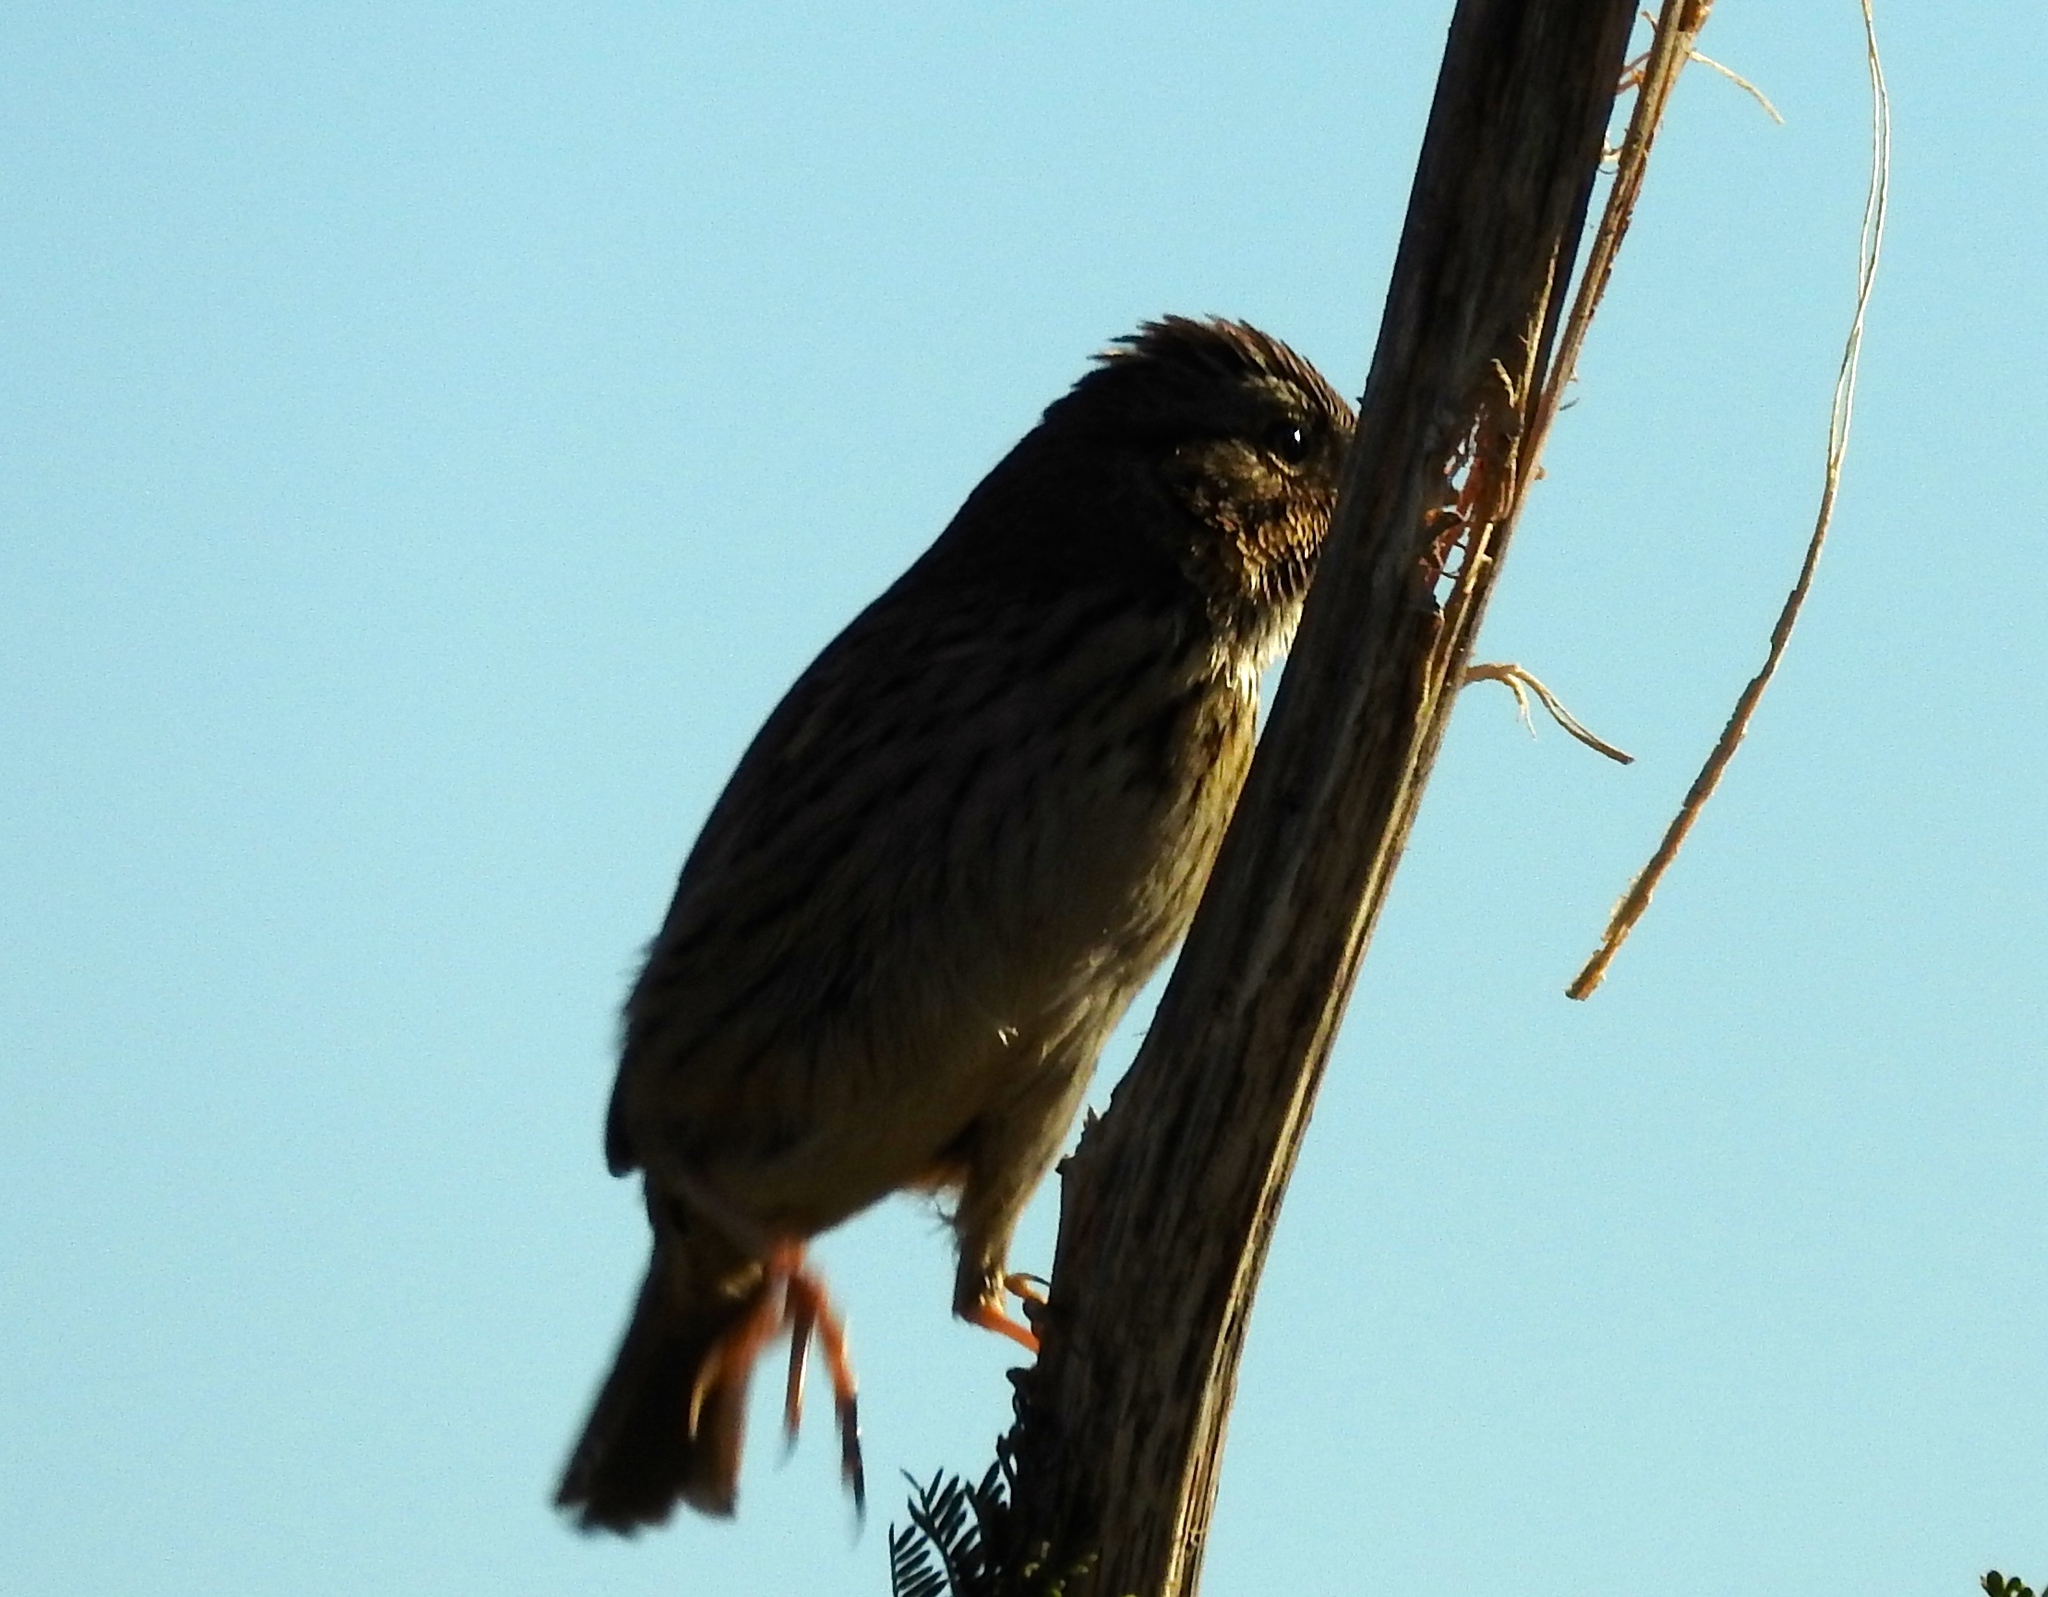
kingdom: Animalia
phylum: Chordata
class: Aves
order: Passeriformes
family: Passerellidae
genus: Melospiza
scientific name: Melospiza lincolnii
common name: Lincoln's sparrow
